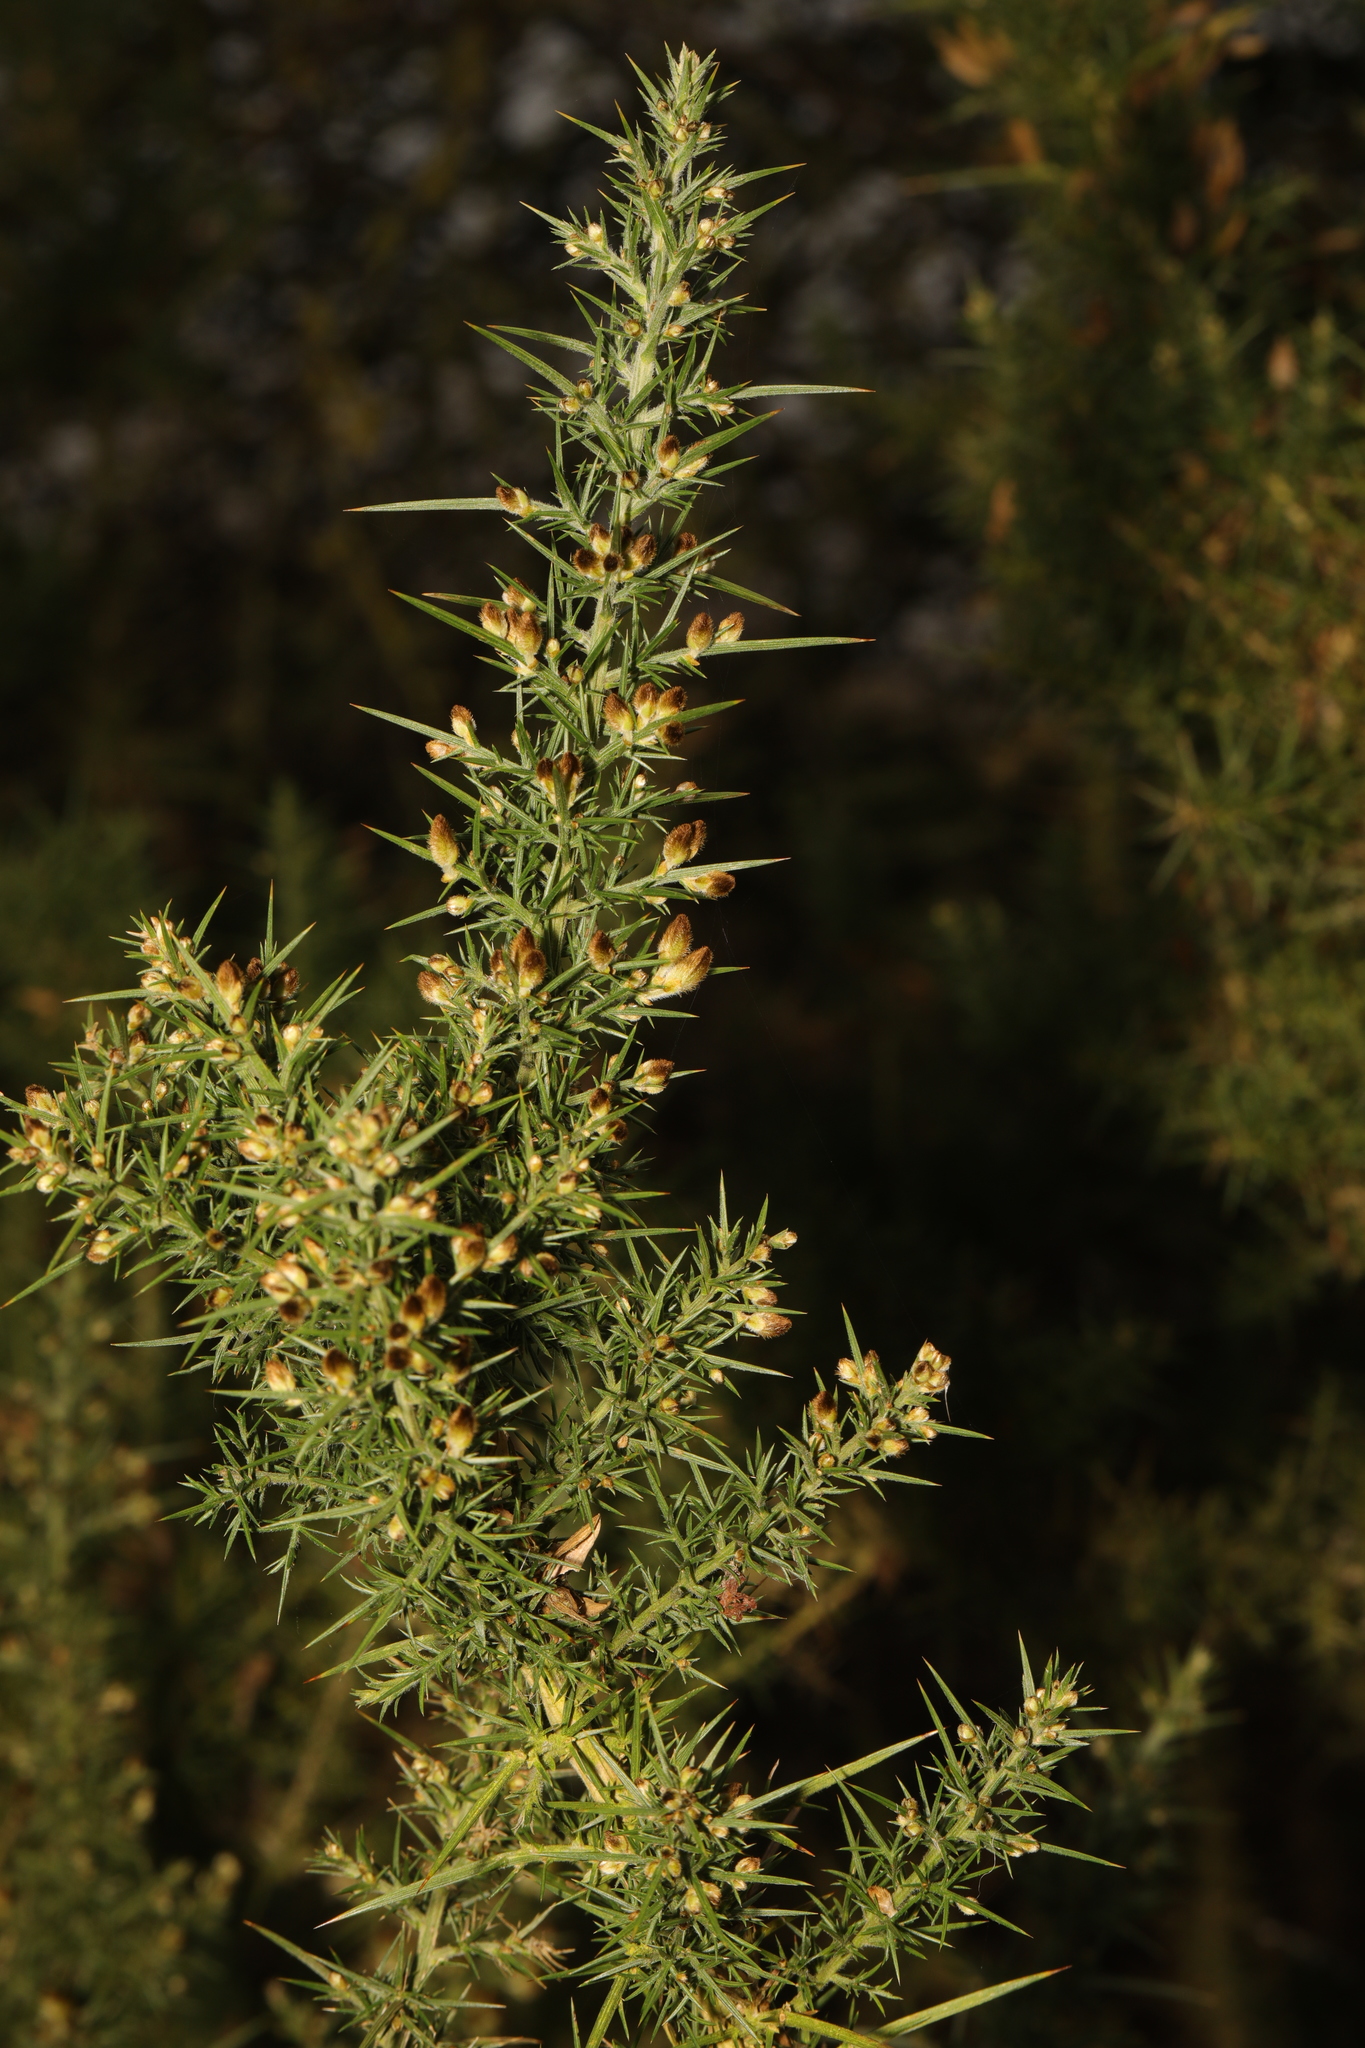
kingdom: Plantae
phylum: Tracheophyta
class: Magnoliopsida
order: Fabales
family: Fabaceae
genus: Ulex
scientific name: Ulex europaeus
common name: Common gorse
